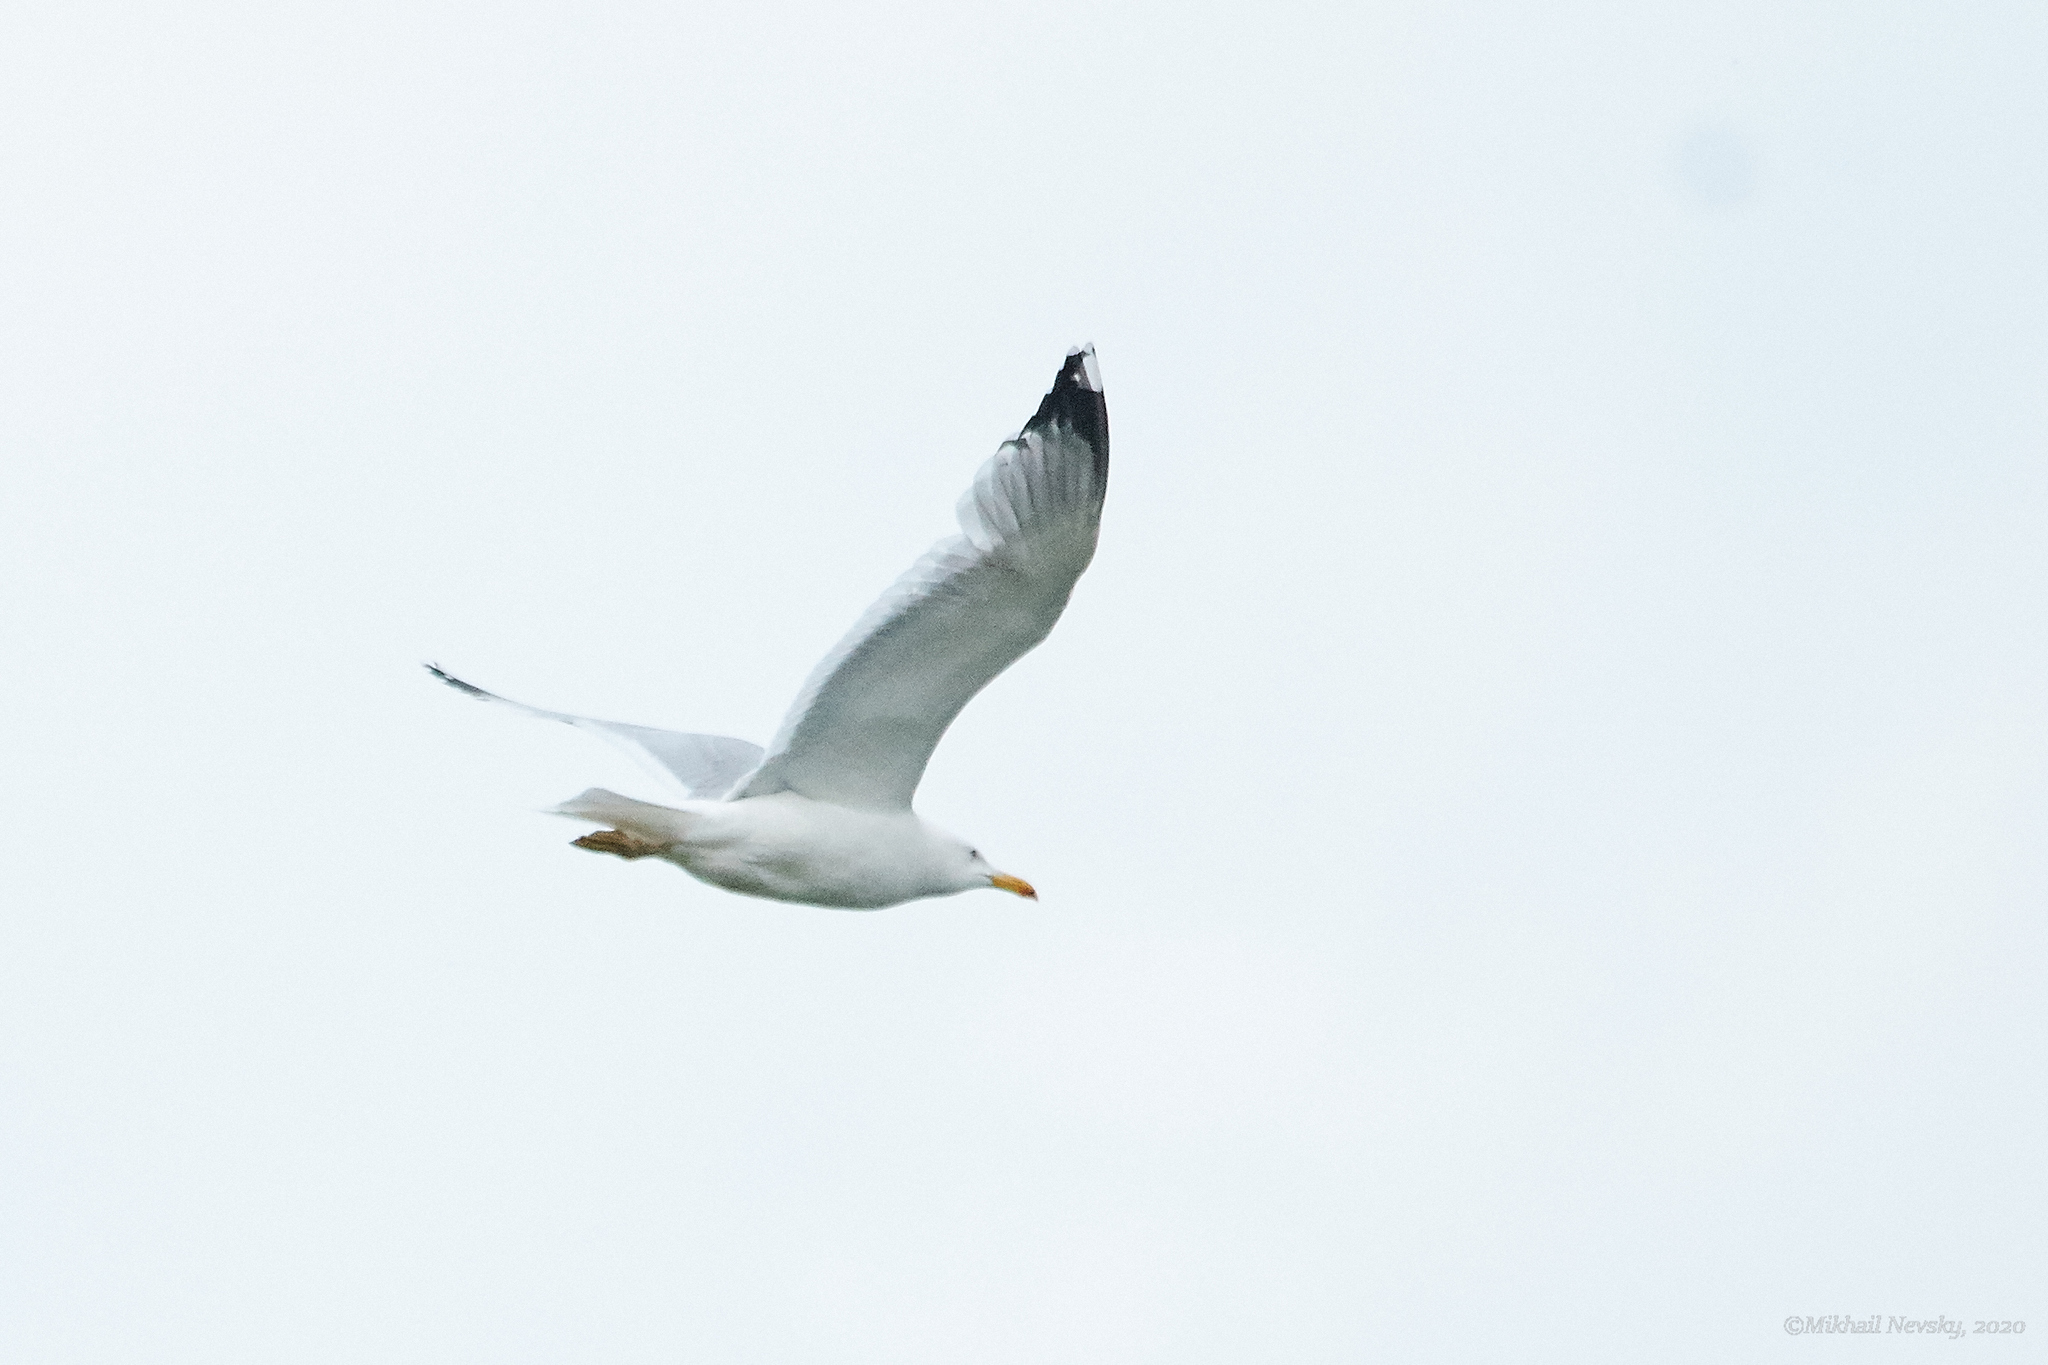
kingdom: Animalia
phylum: Chordata
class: Aves
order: Charadriiformes
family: Laridae
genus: Larus
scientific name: Larus cachinnans
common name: Caspian gull
